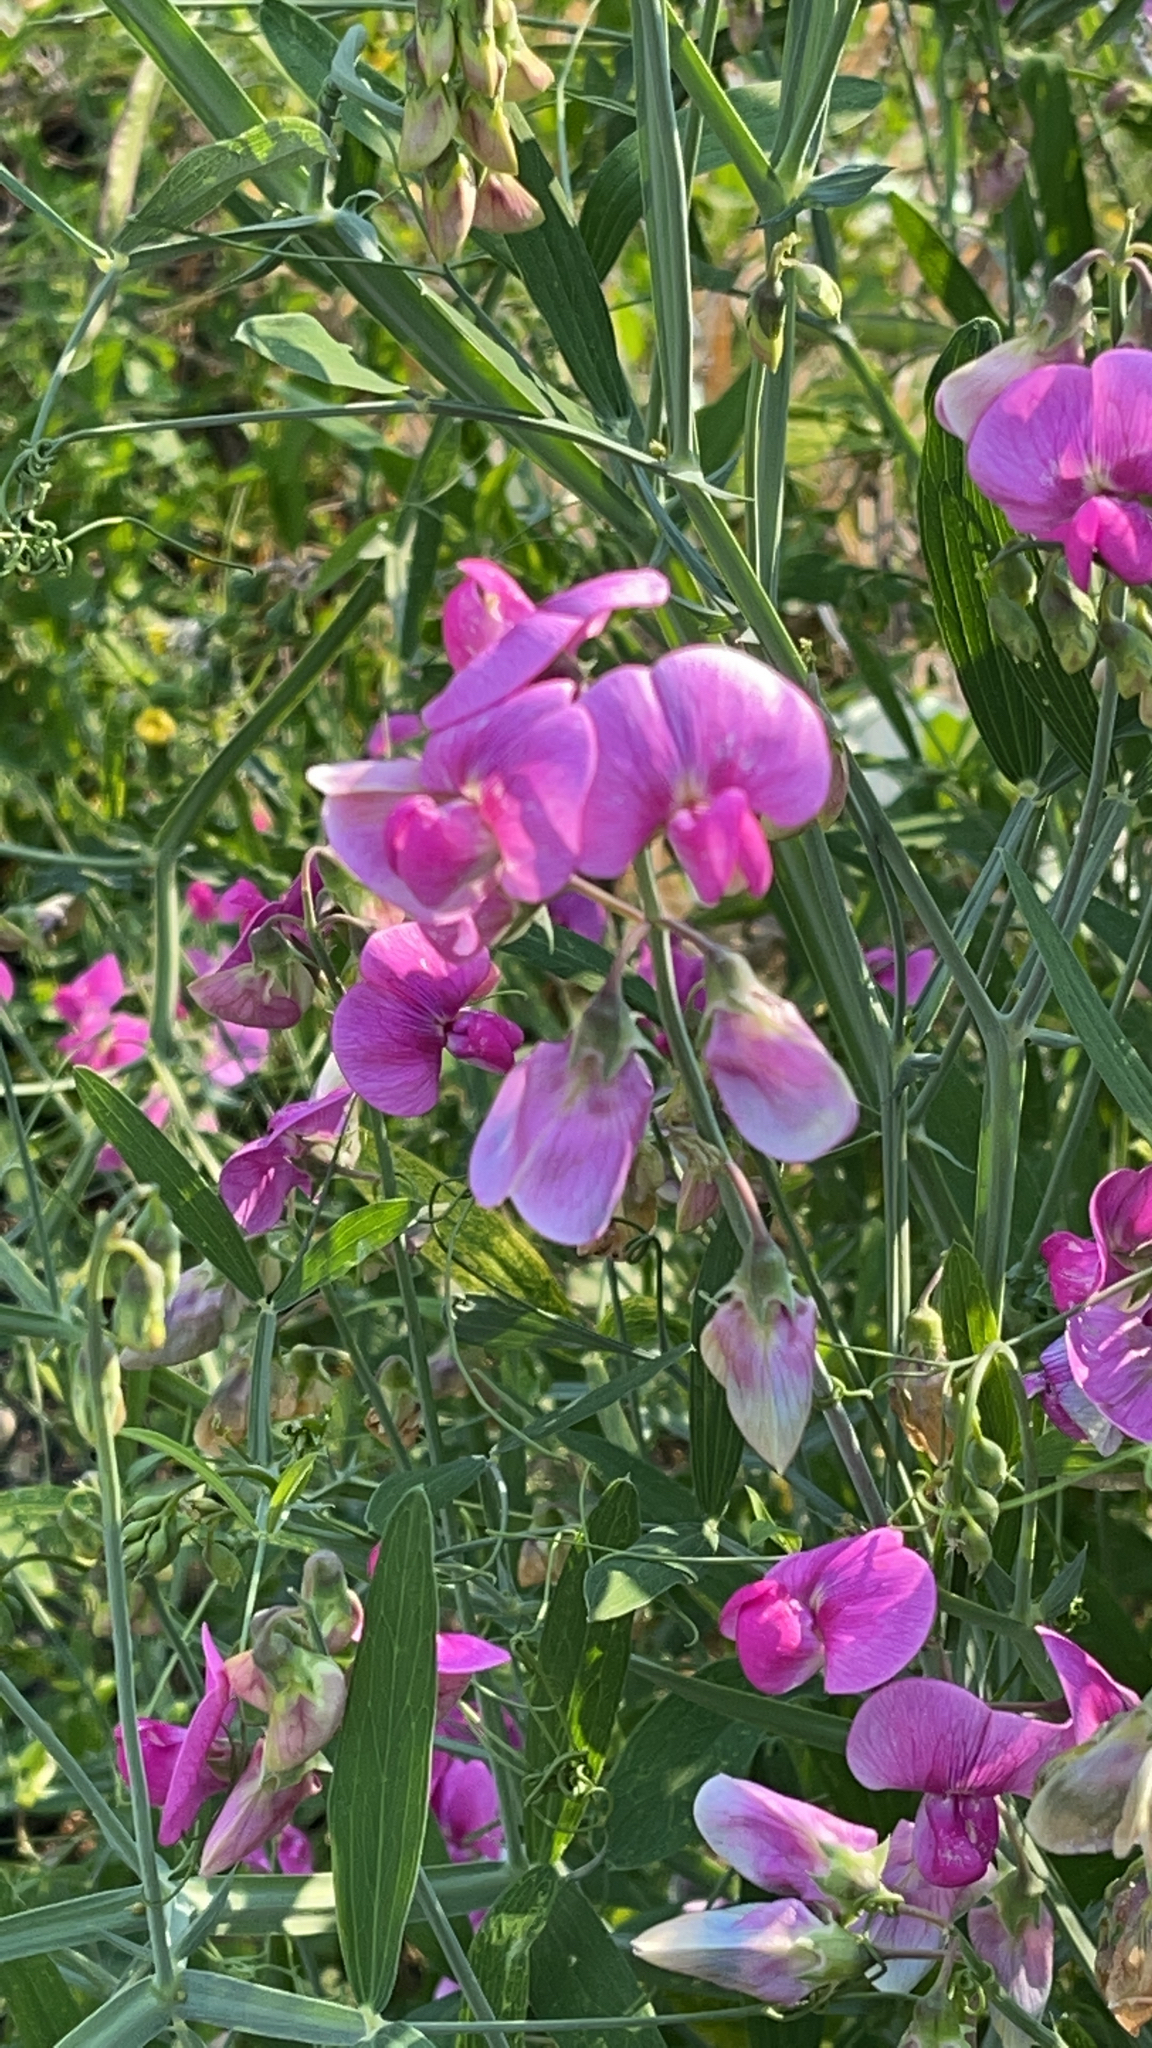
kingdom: Plantae
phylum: Tracheophyta
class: Magnoliopsida
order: Fabales
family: Fabaceae
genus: Lathyrus
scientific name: Lathyrus latifolius
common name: Perennial pea
